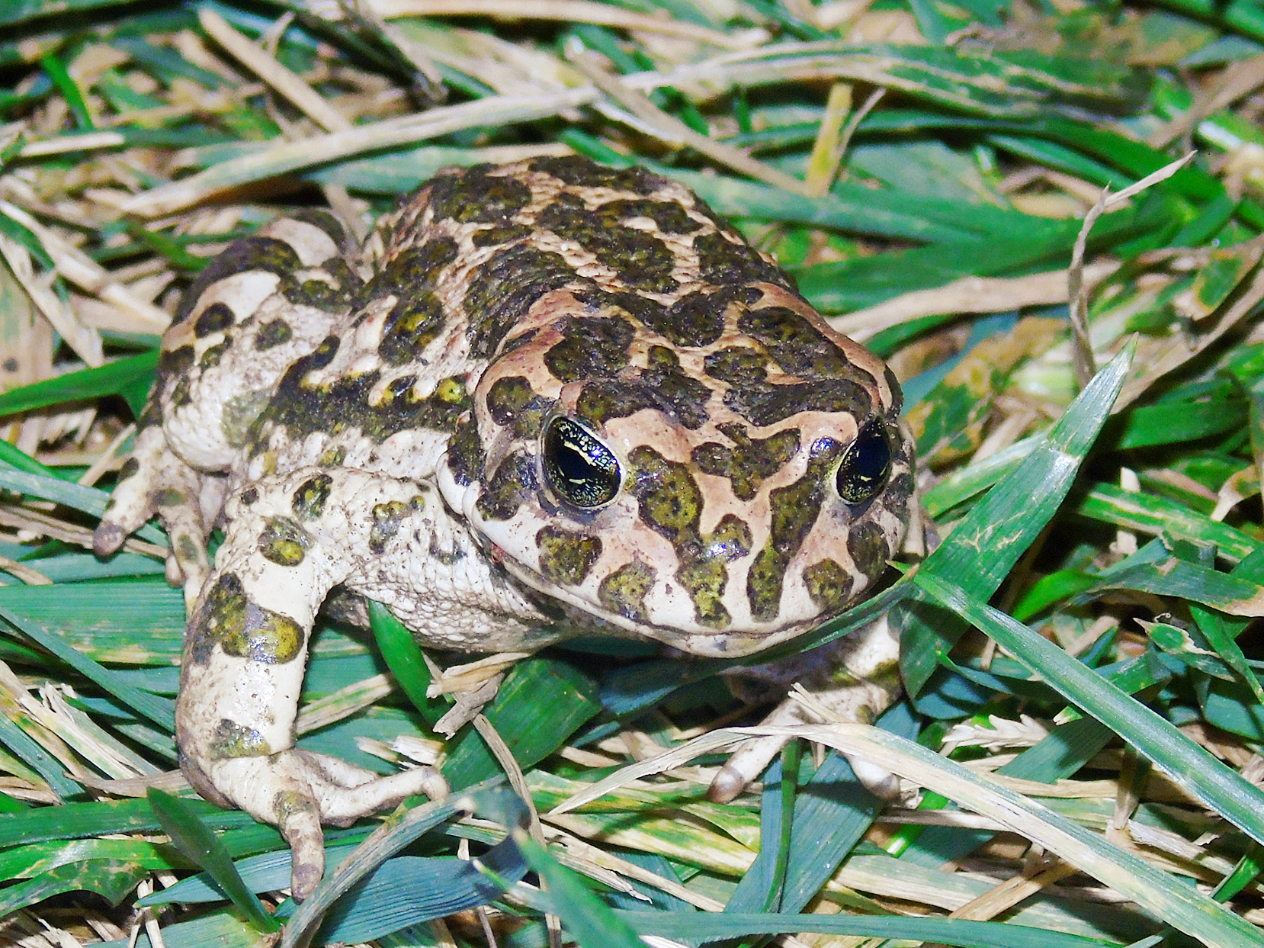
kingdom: Animalia
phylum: Chordata
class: Amphibia
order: Anura
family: Bufonidae
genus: Bufotes
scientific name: Bufotes viridis
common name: European green toad
